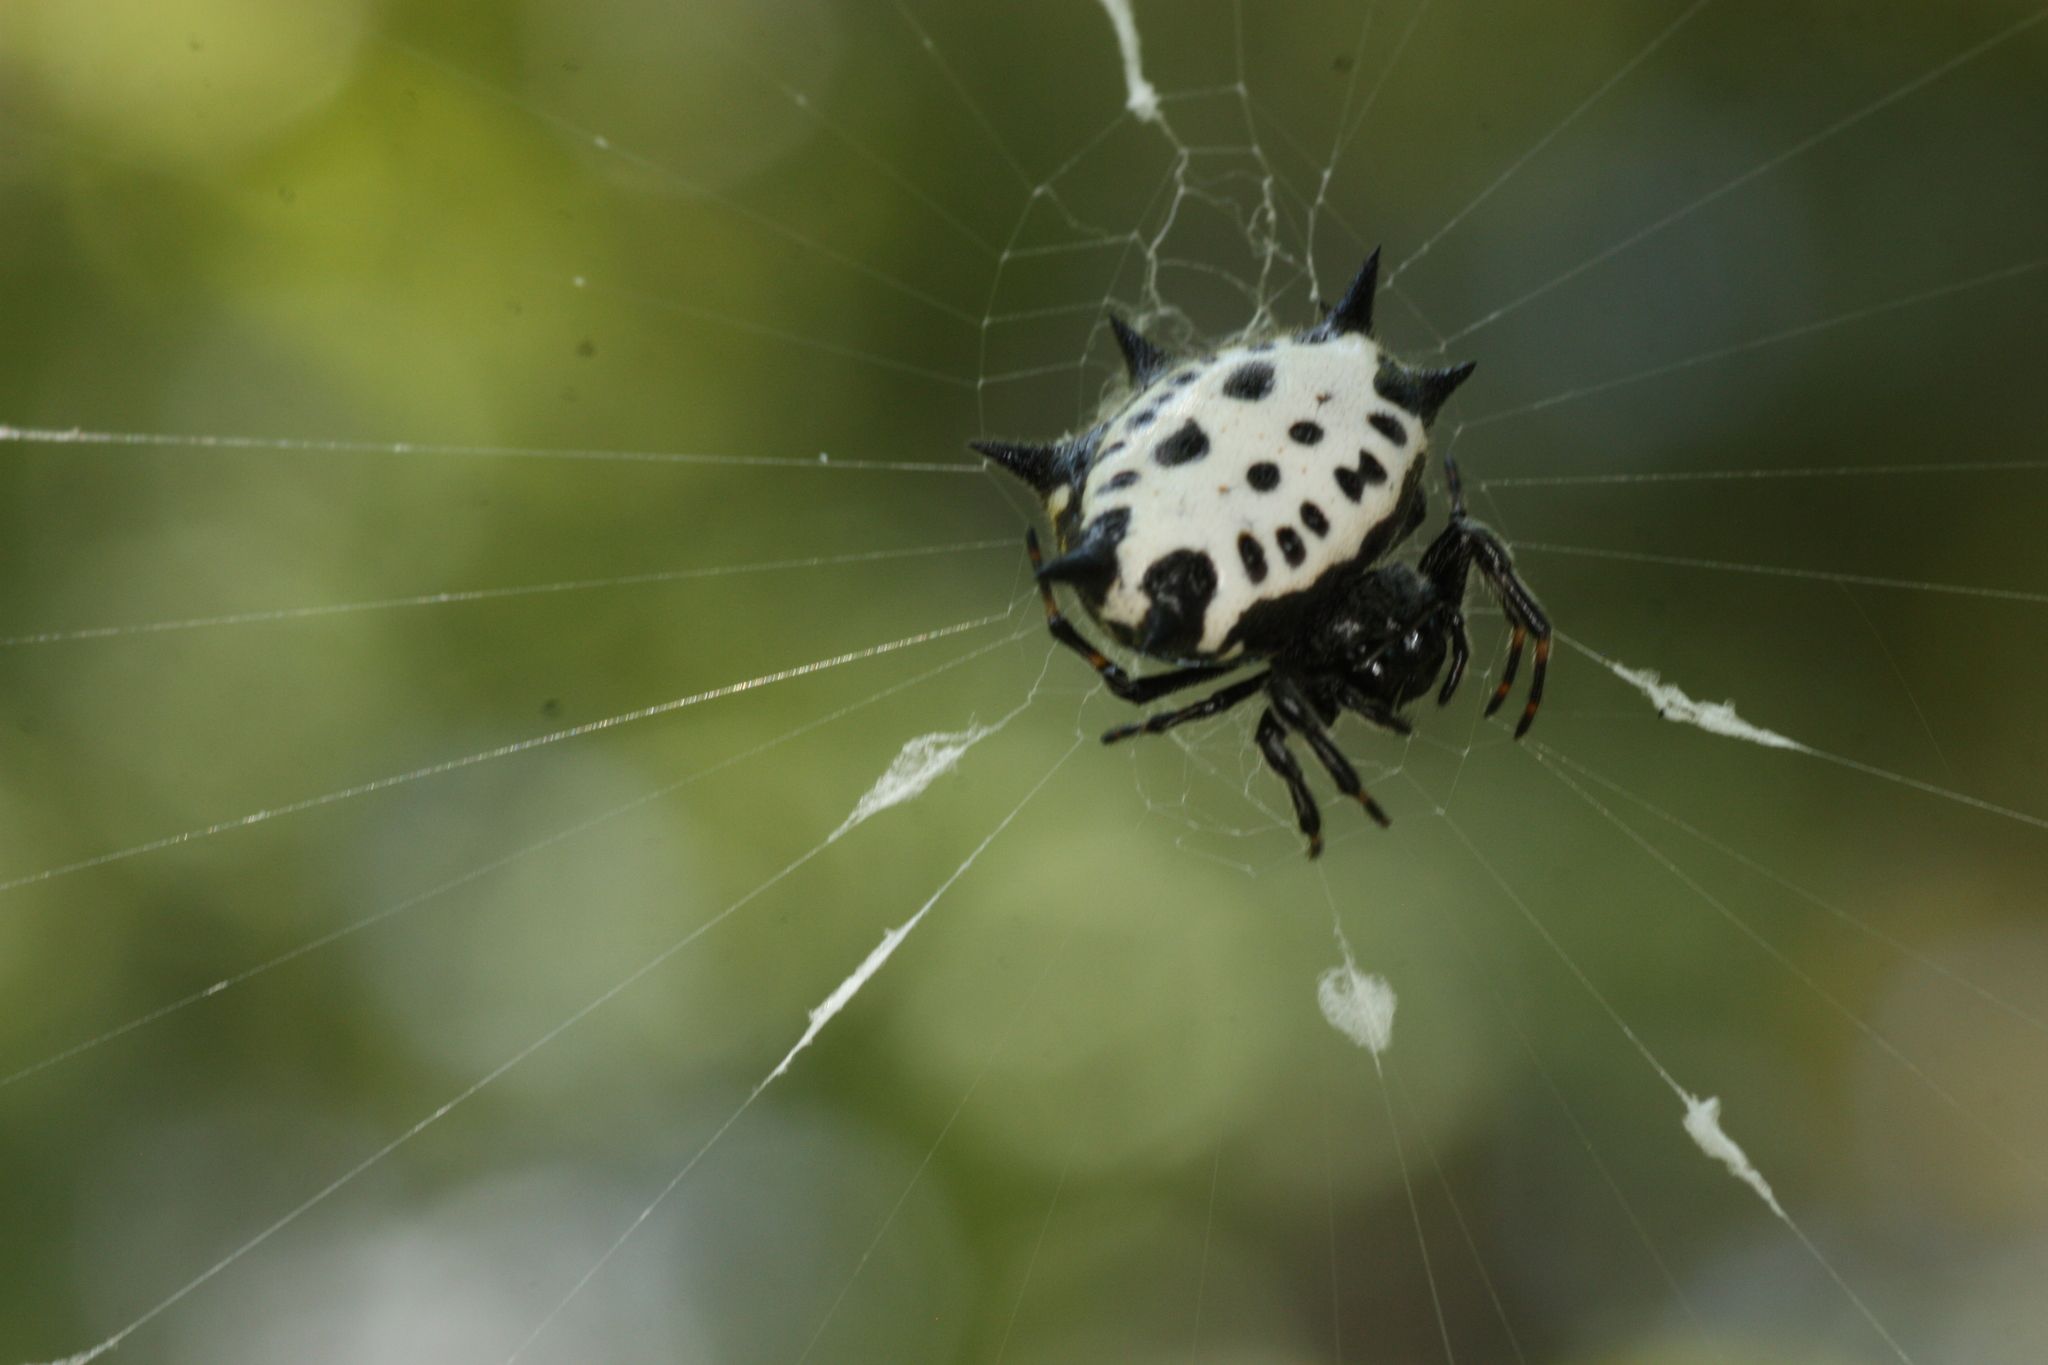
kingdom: Animalia
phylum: Arthropoda
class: Arachnida
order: Araneae
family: Araneidae
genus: Gasteracantha
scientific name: Gasteracantha cancriformis
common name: Orb weavers
